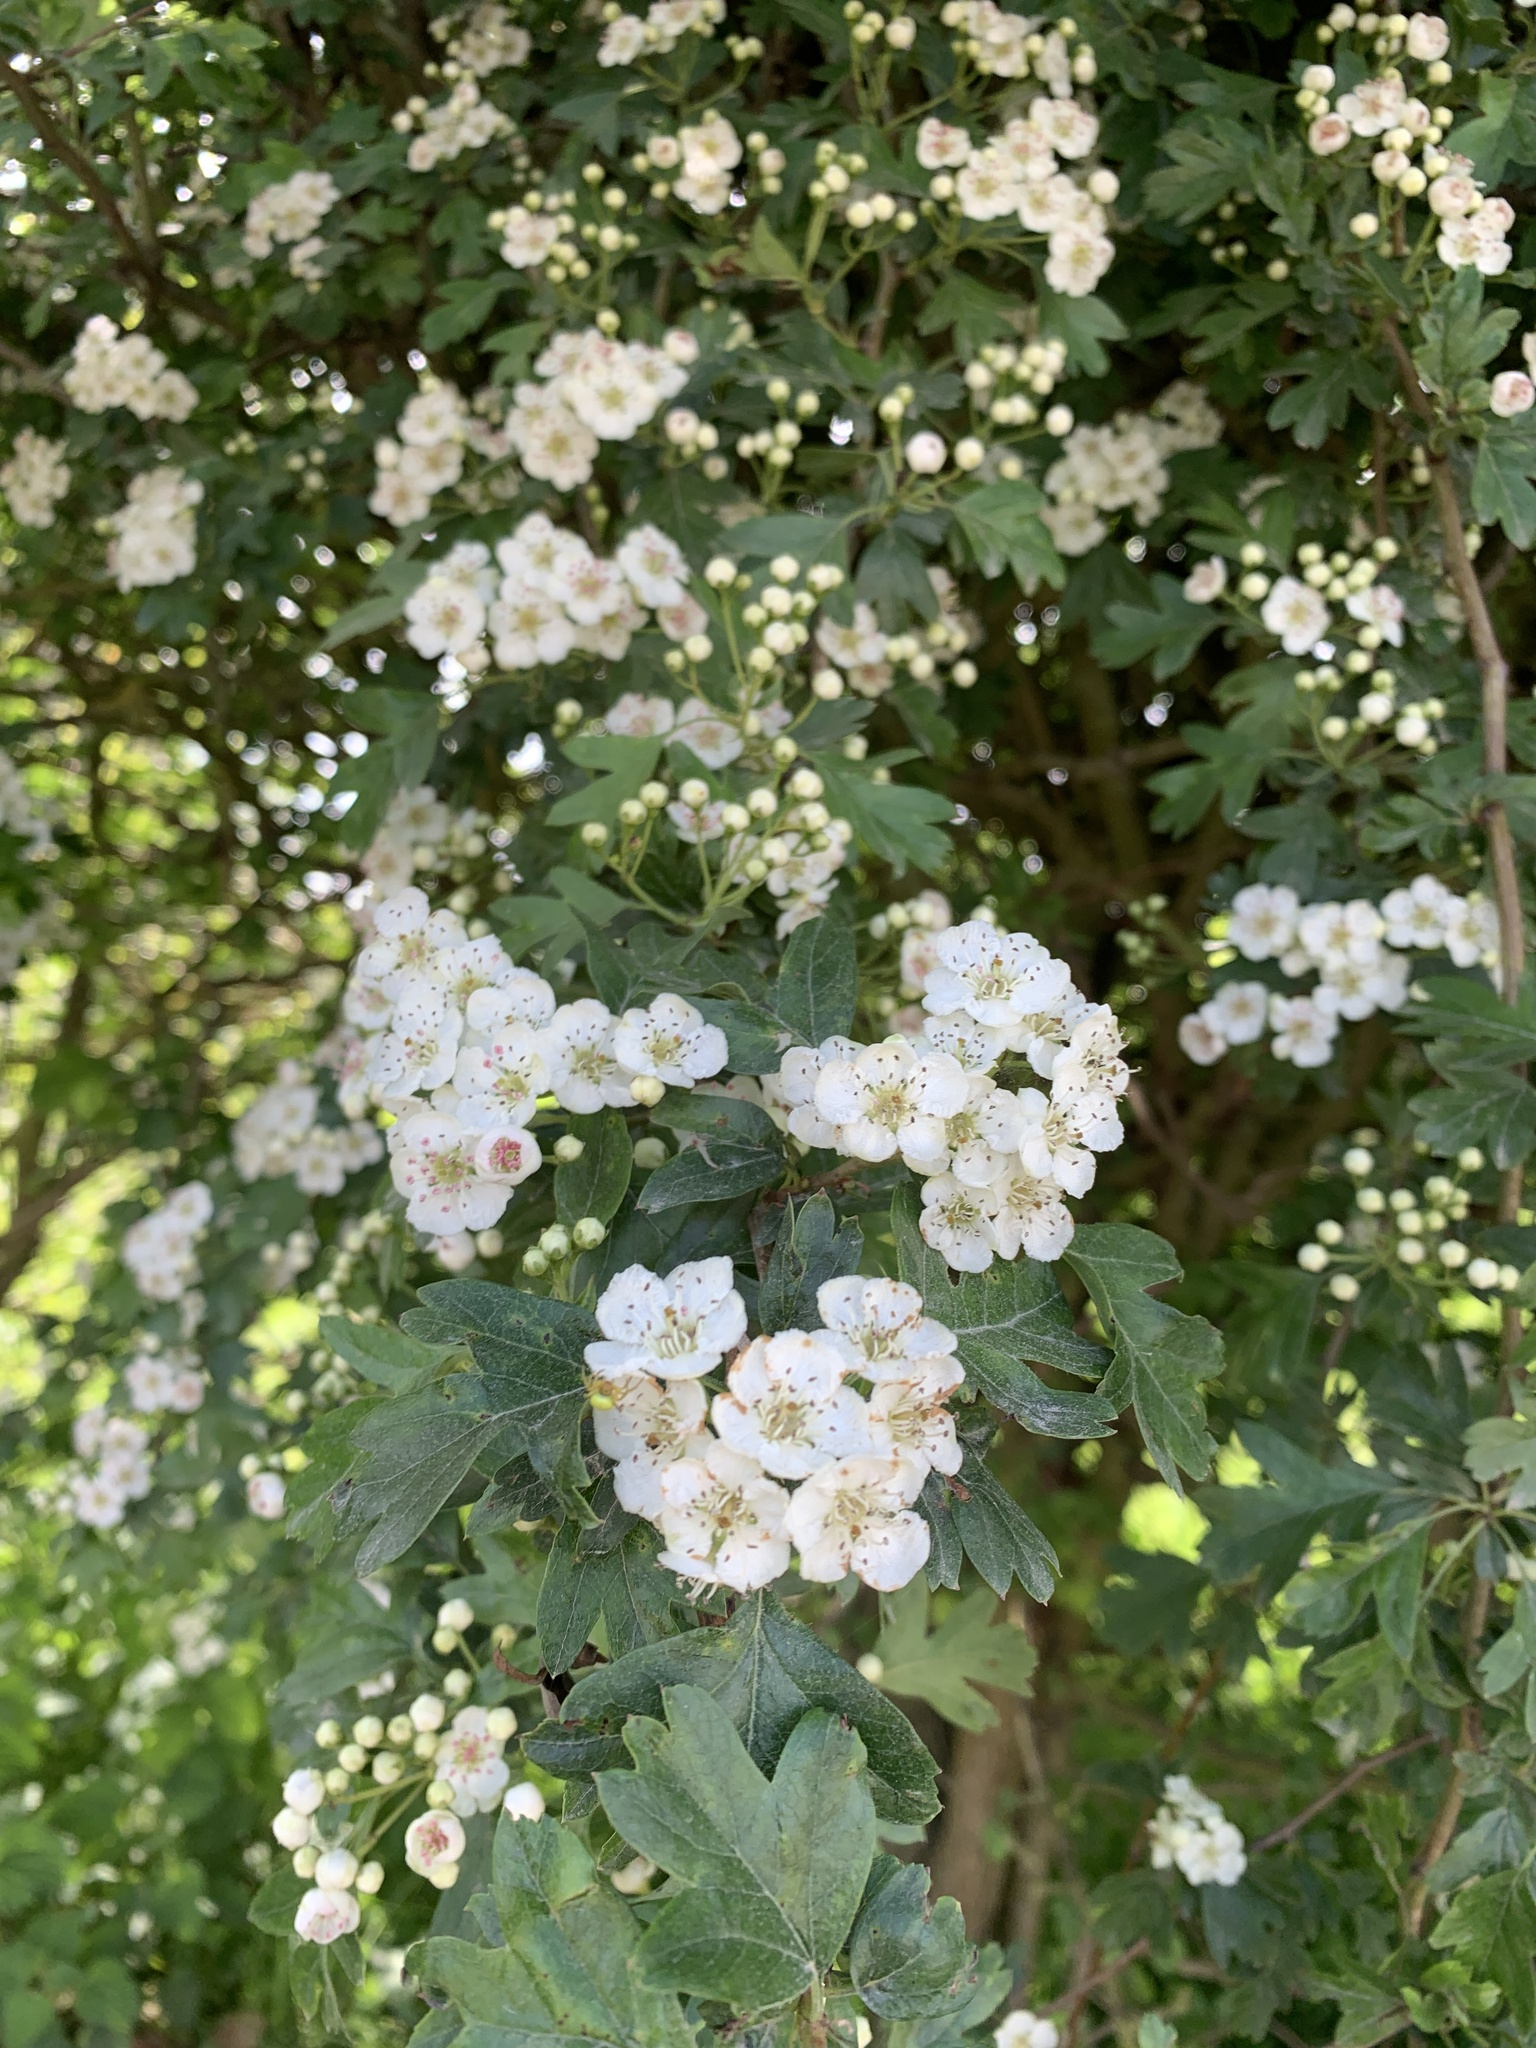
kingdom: Plantae
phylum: Tracheophyta
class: Magnoliopsida
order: Rosales
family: Rosaceae
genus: Crataegus
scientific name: Crataegus monogyna
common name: Hawthorn
